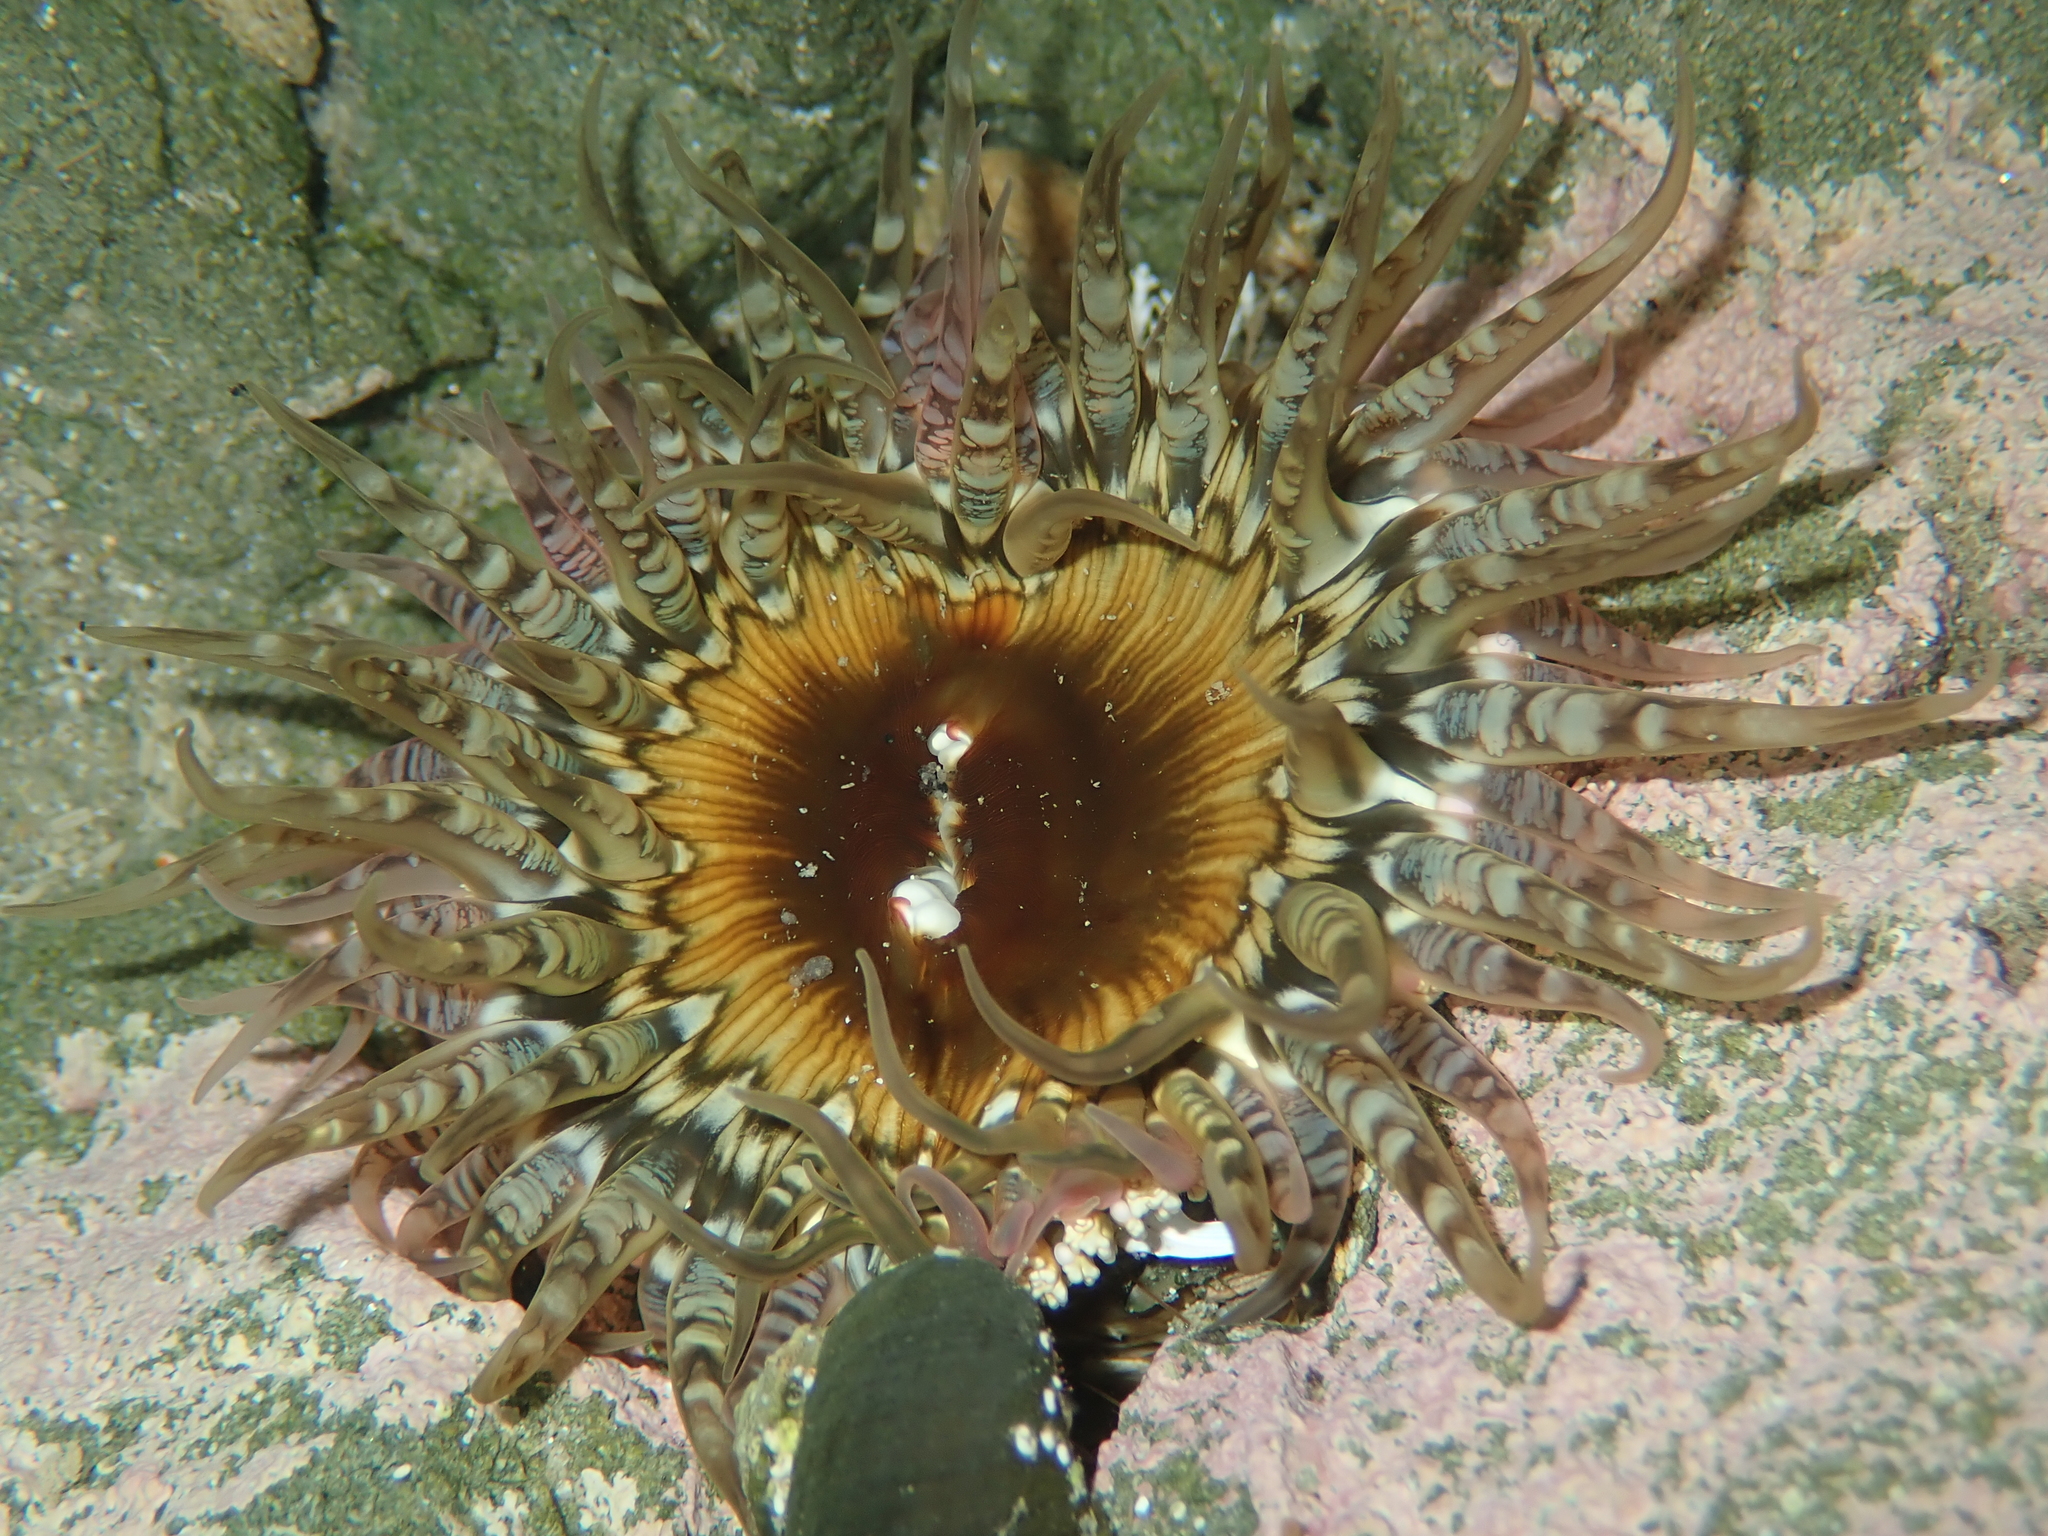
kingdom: Animalia
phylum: Cnidaria
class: Anthozoa
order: Actiniaria
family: Actiniidae
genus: Oulactis
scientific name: Oulactis muscosa
